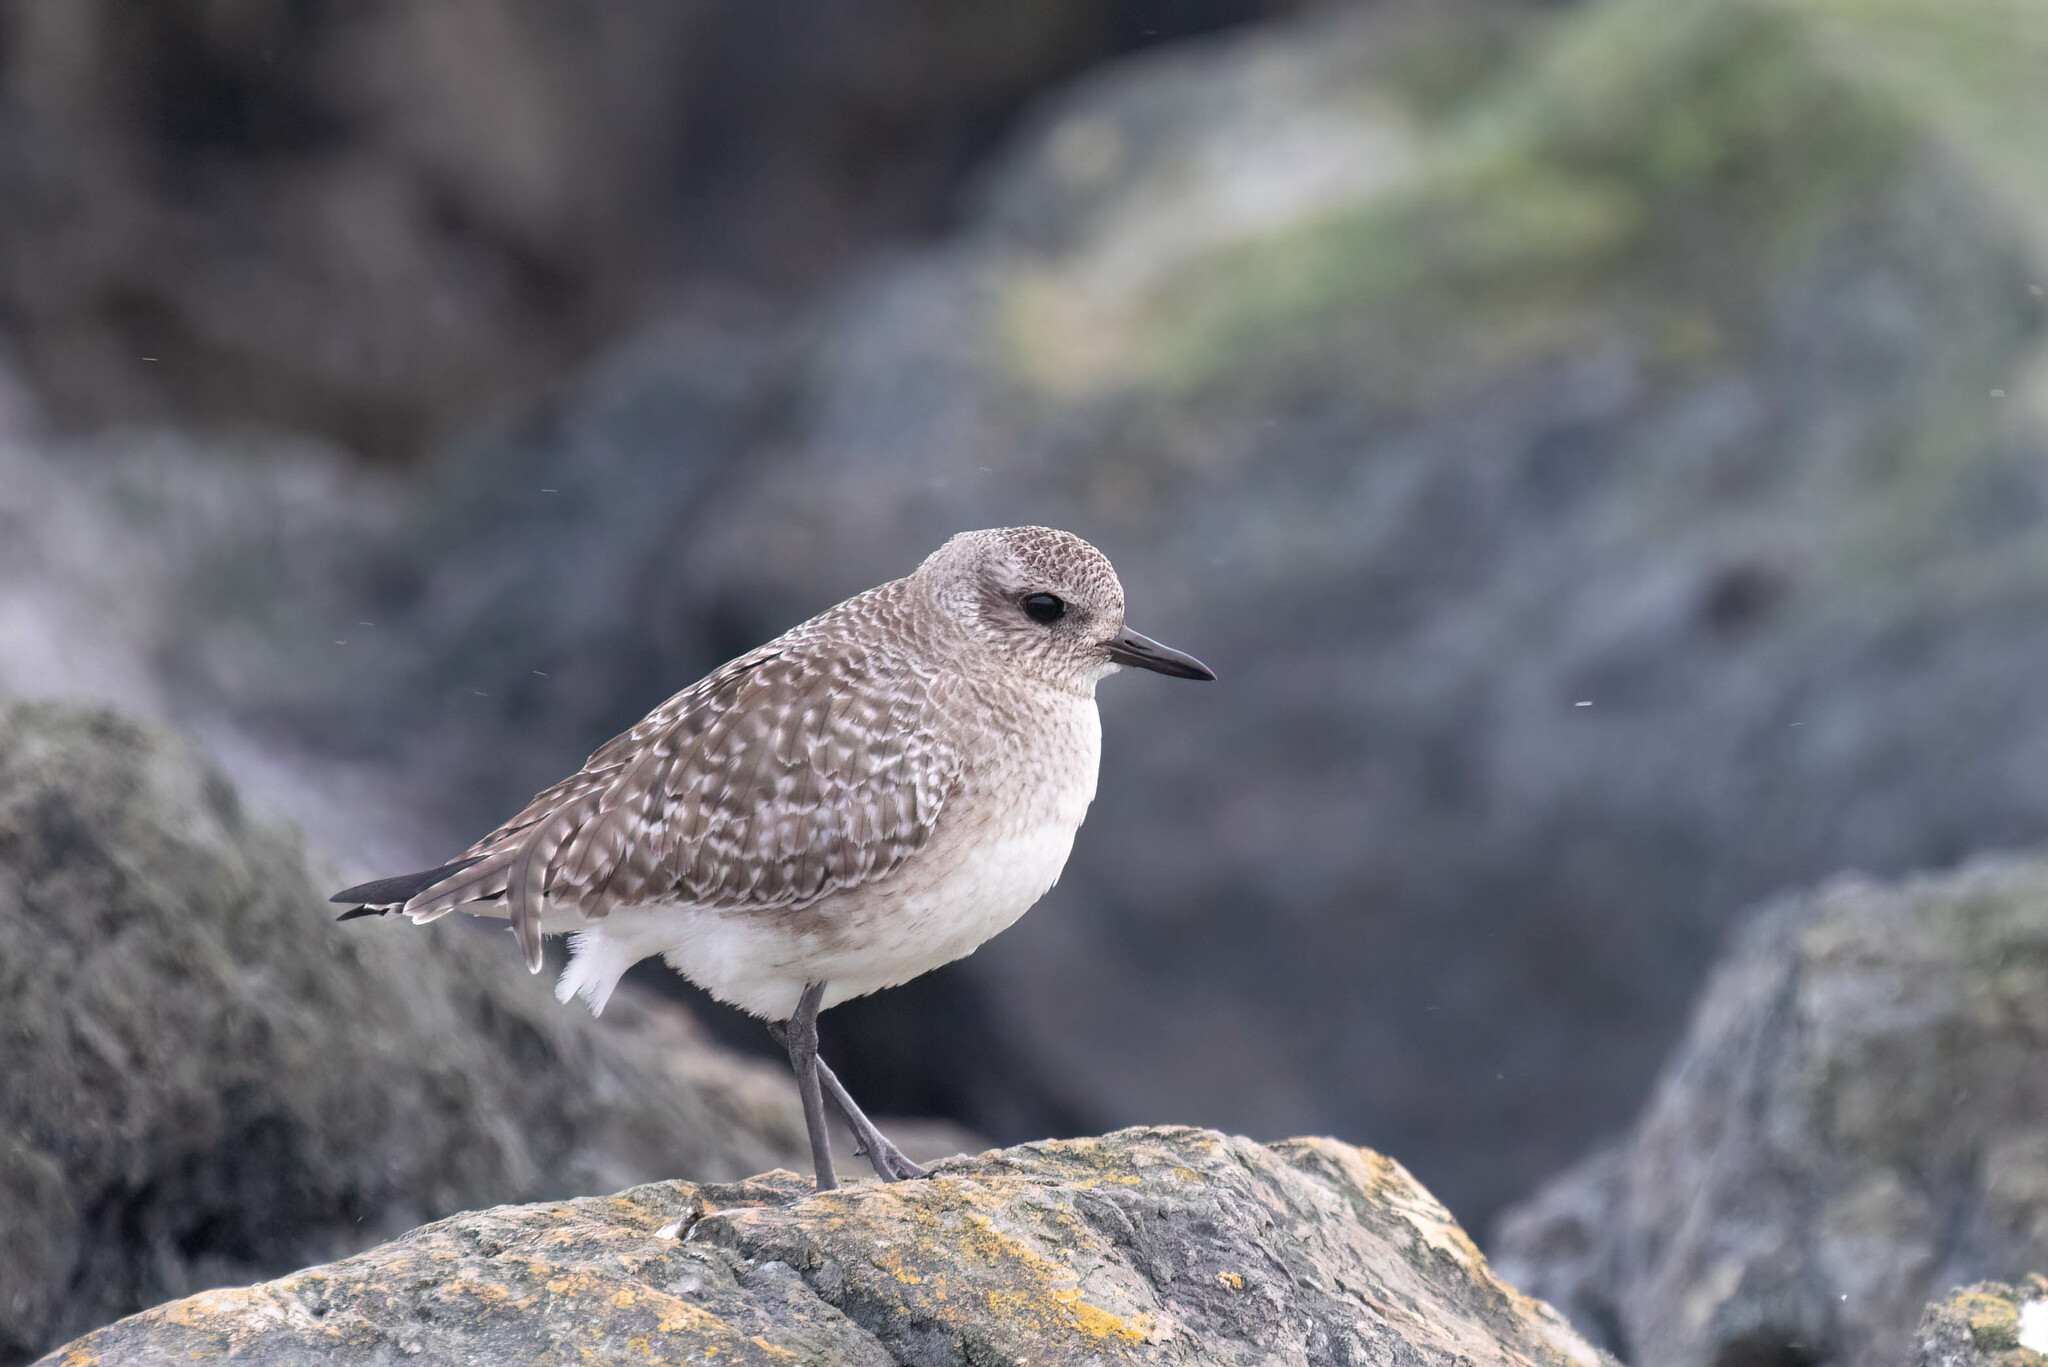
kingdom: Animalia
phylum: Chordata
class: Aves
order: Charadriiformes
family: Charadriidae
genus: Pluvialis
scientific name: Pluvialis squatarola
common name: Grey plover
